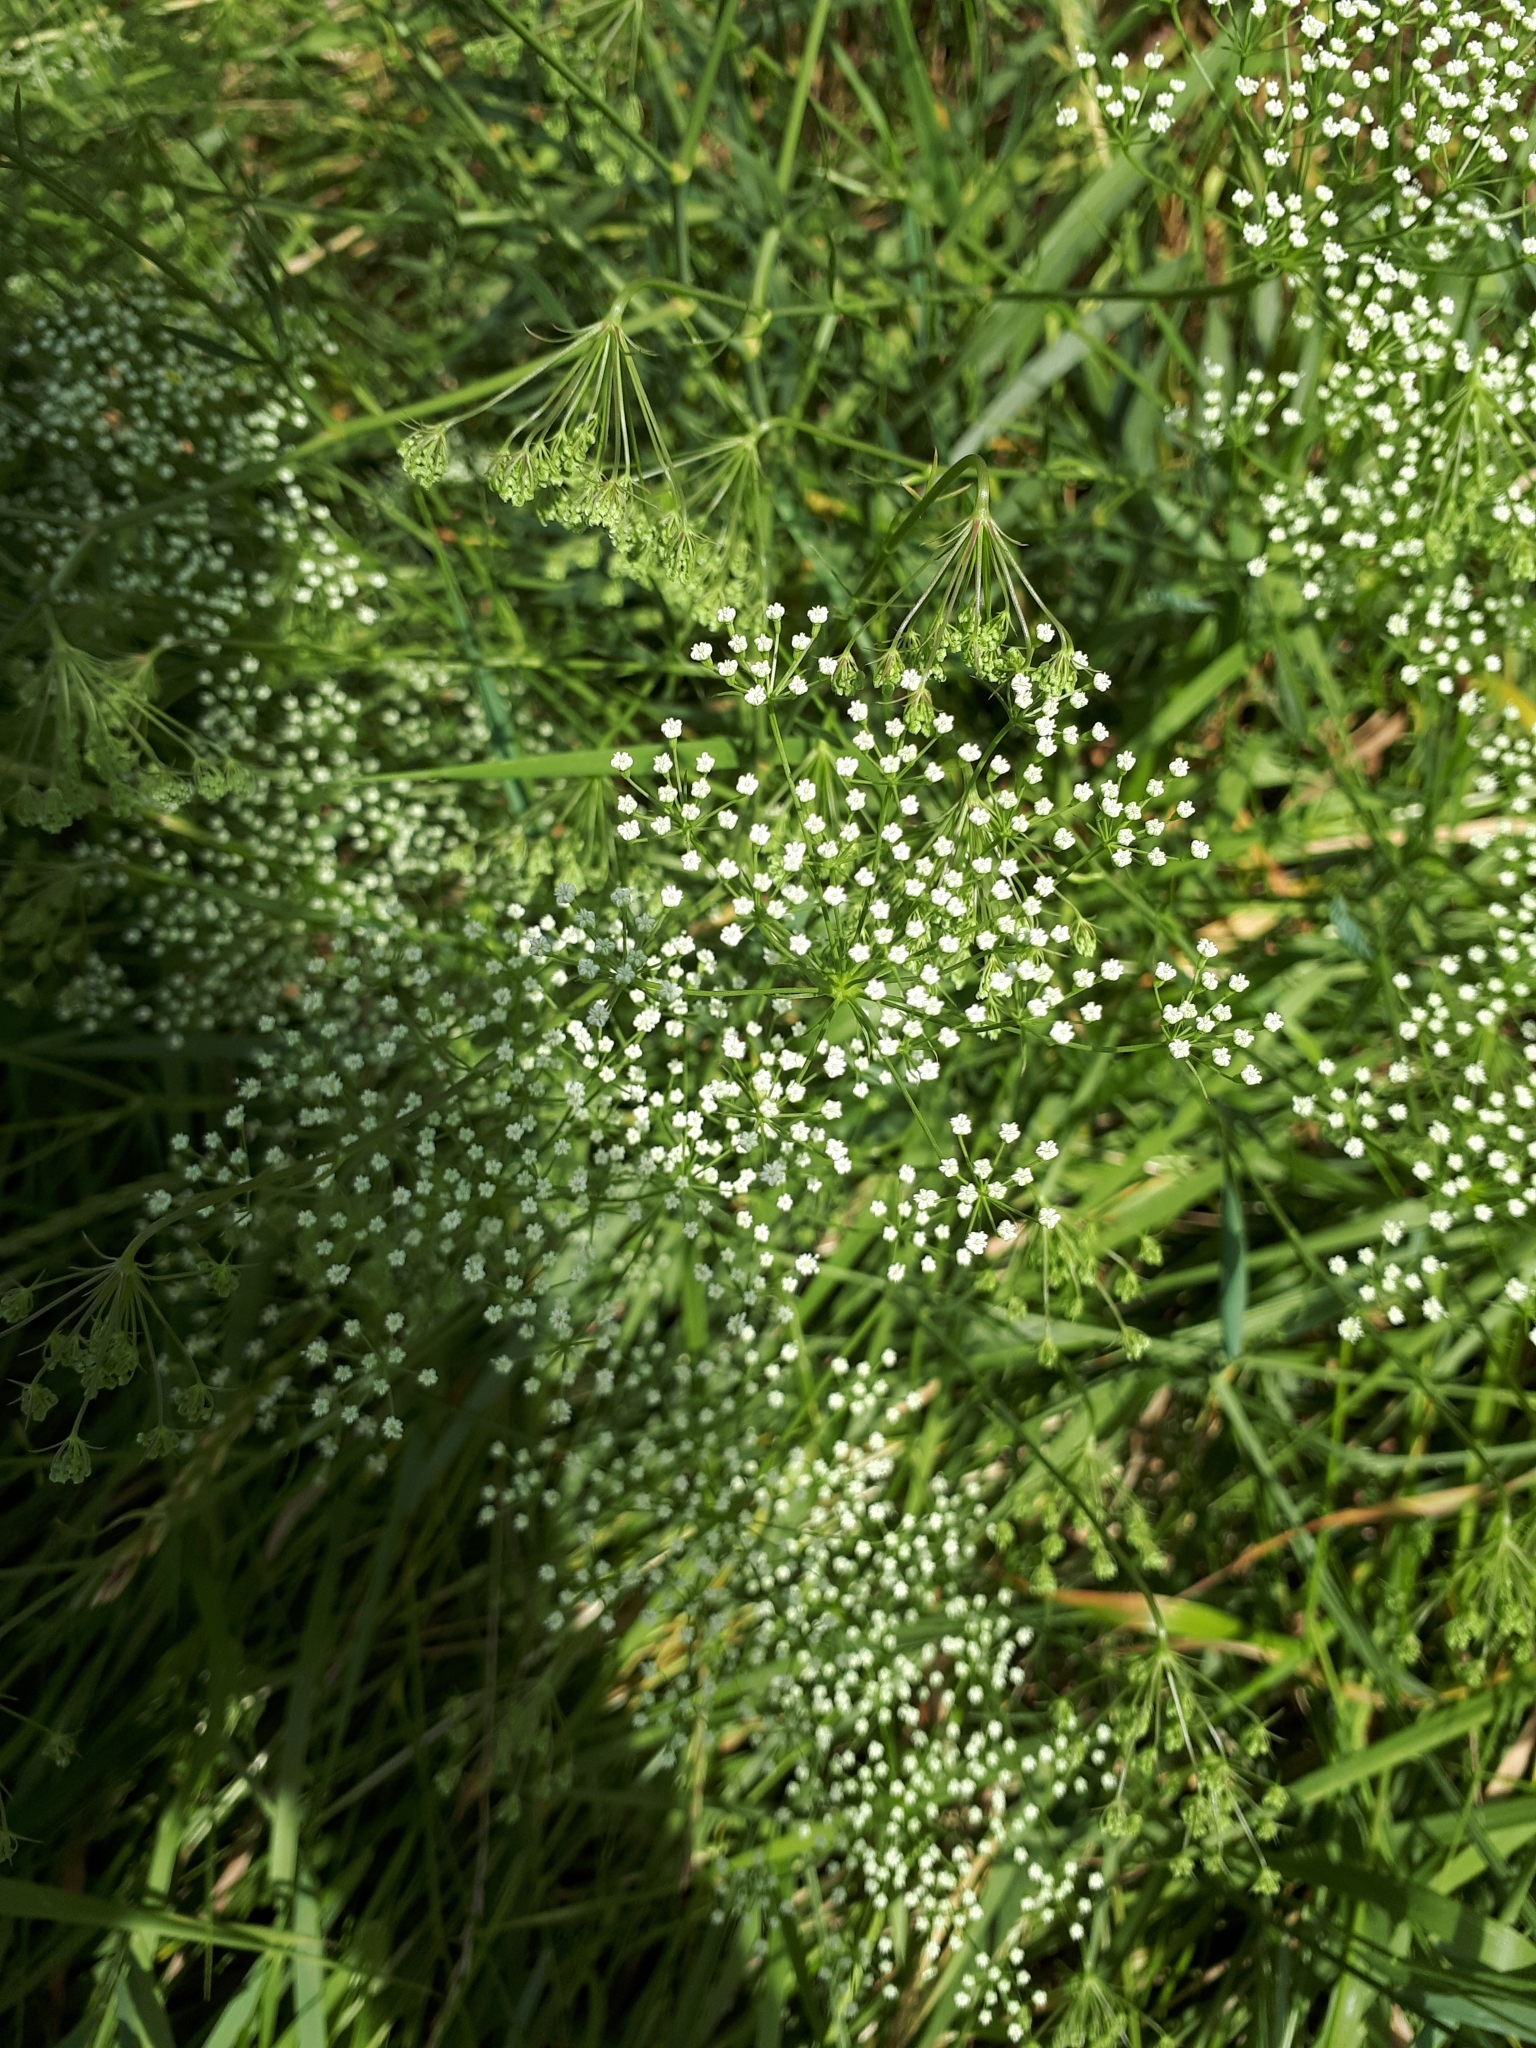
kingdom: Plantae
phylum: Tracheophyta
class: Magnoliopsida
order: Apiales
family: Apiaceae
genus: Falcaria
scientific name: Falcaria vulgaris
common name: Longleaf
